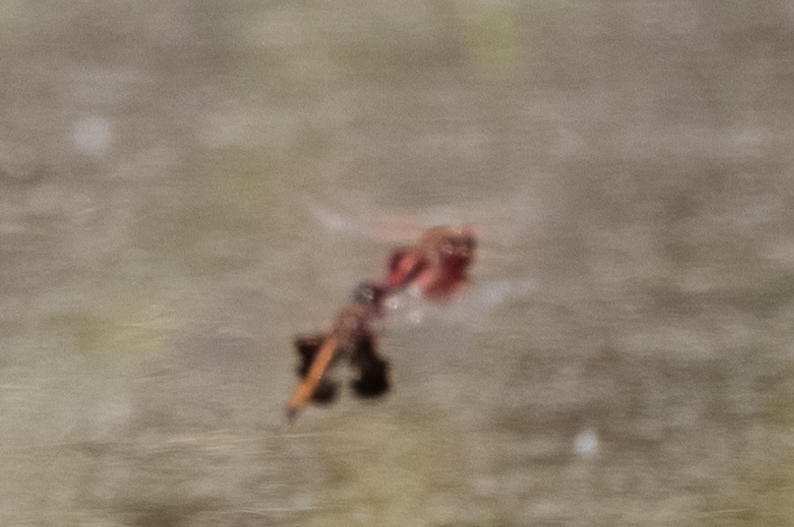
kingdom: Animalia
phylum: Arthropoda
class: Insecta
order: Odonata
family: Libellulidae
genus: Tramea
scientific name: Tramea carolina
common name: Carolina saddlebags
